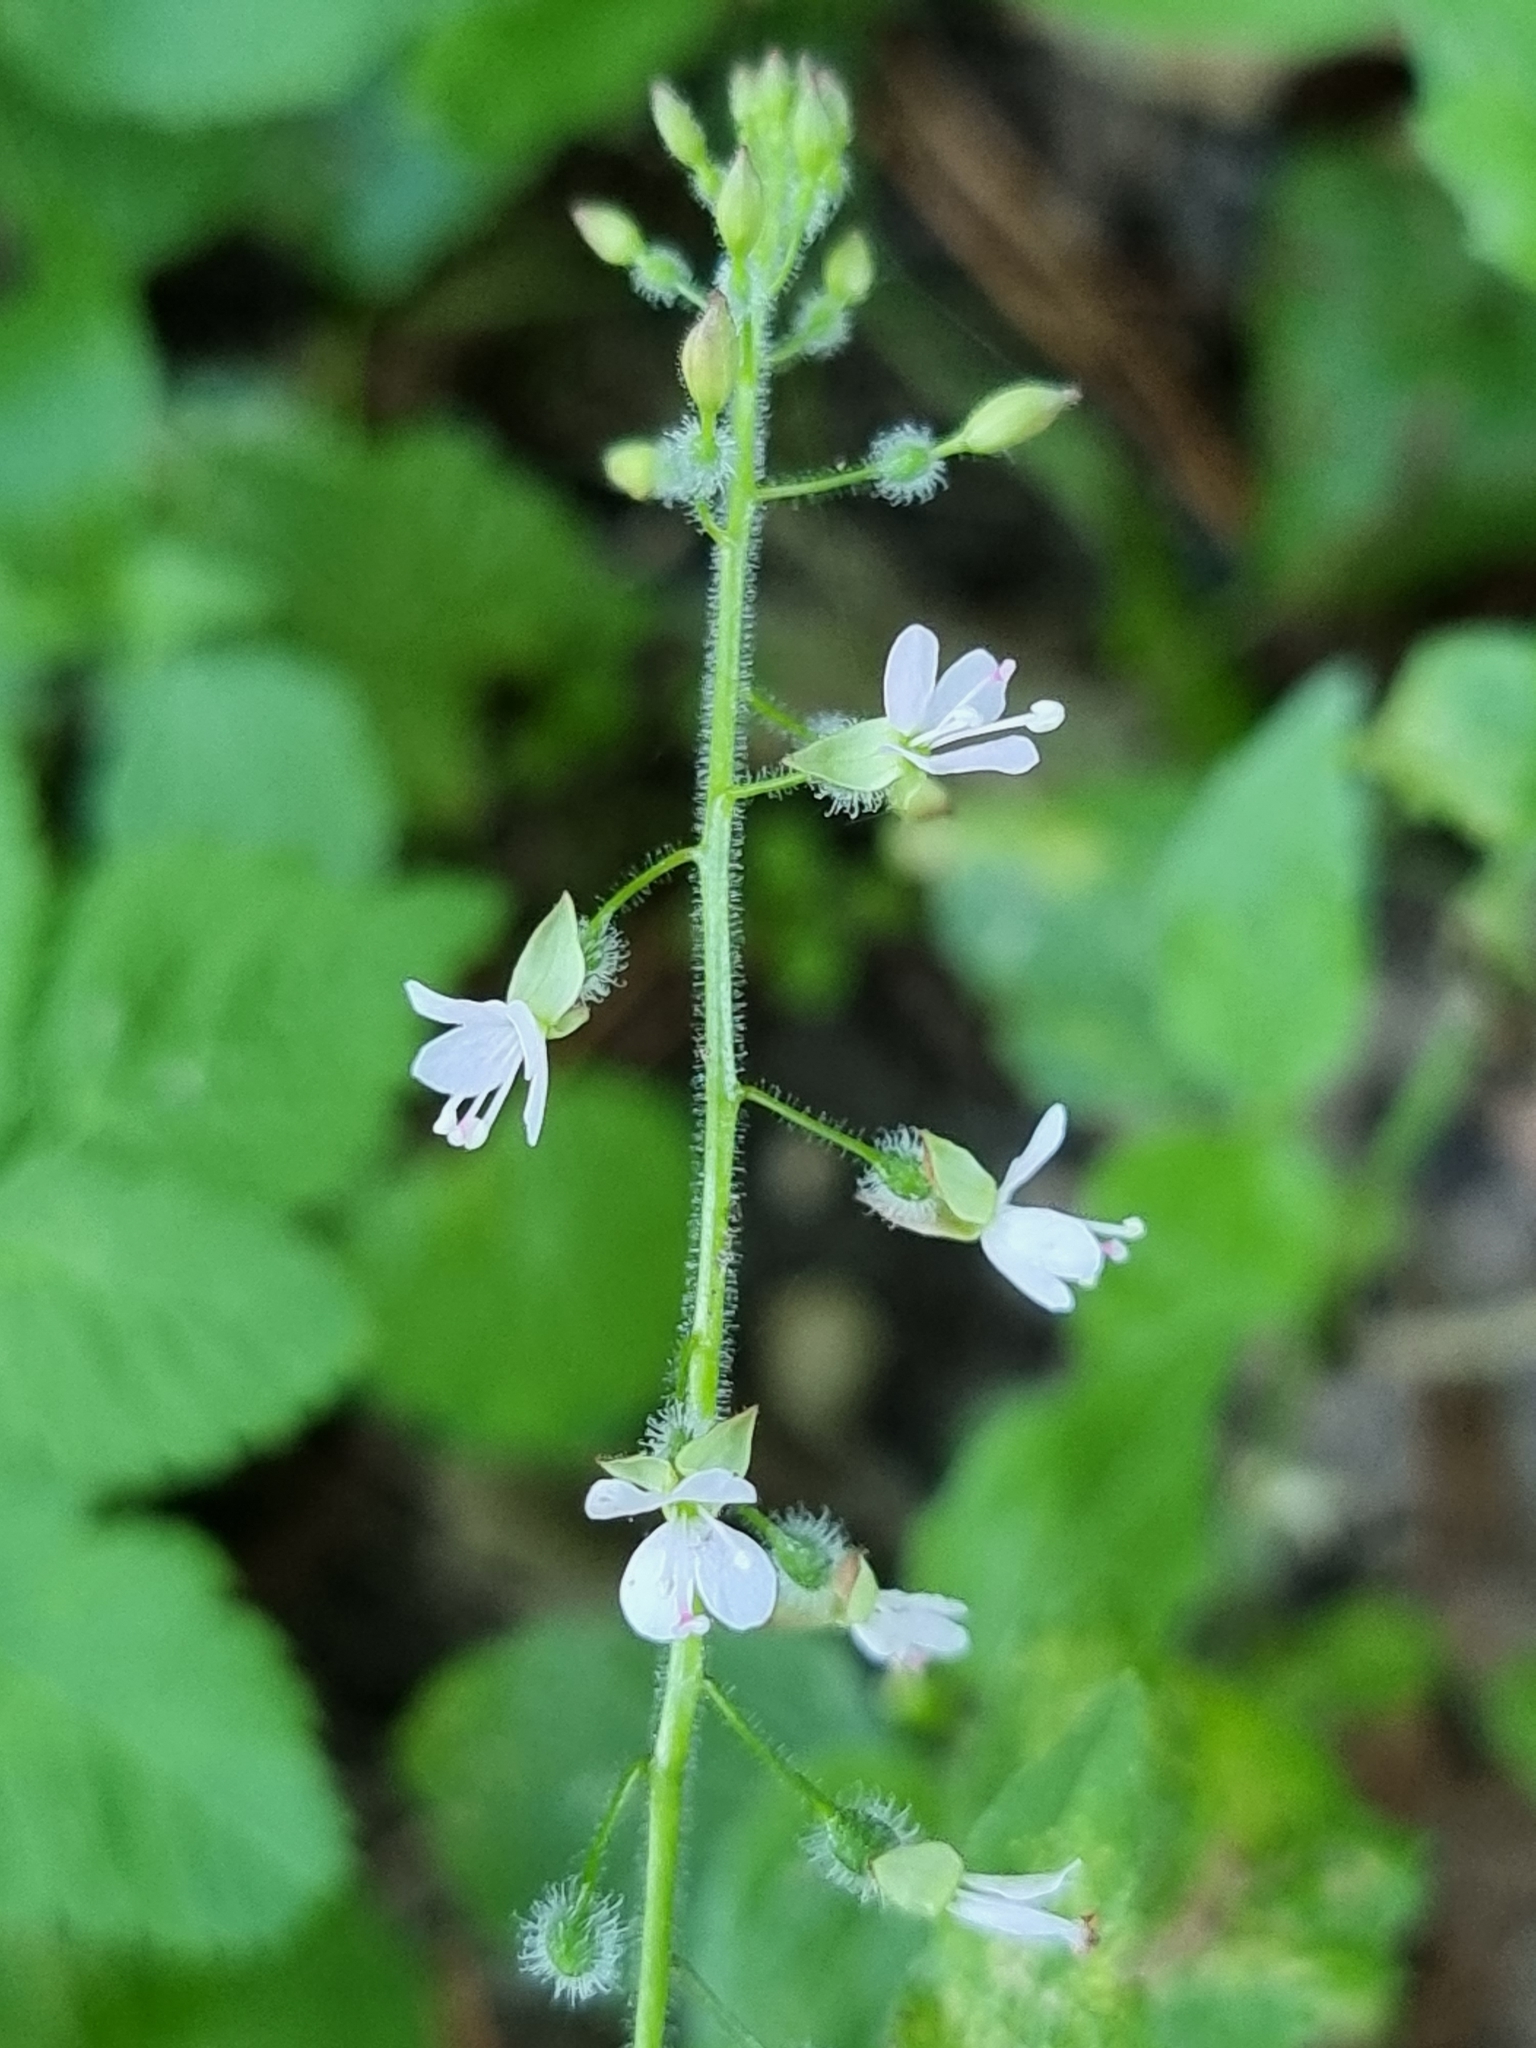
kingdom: Plantae
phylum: Tracheophyta
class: Magnoliopsida
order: Myrtales
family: Onagraceae
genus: Circaea
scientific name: Circaea lutetiana
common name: Enchanter's-nightshade
